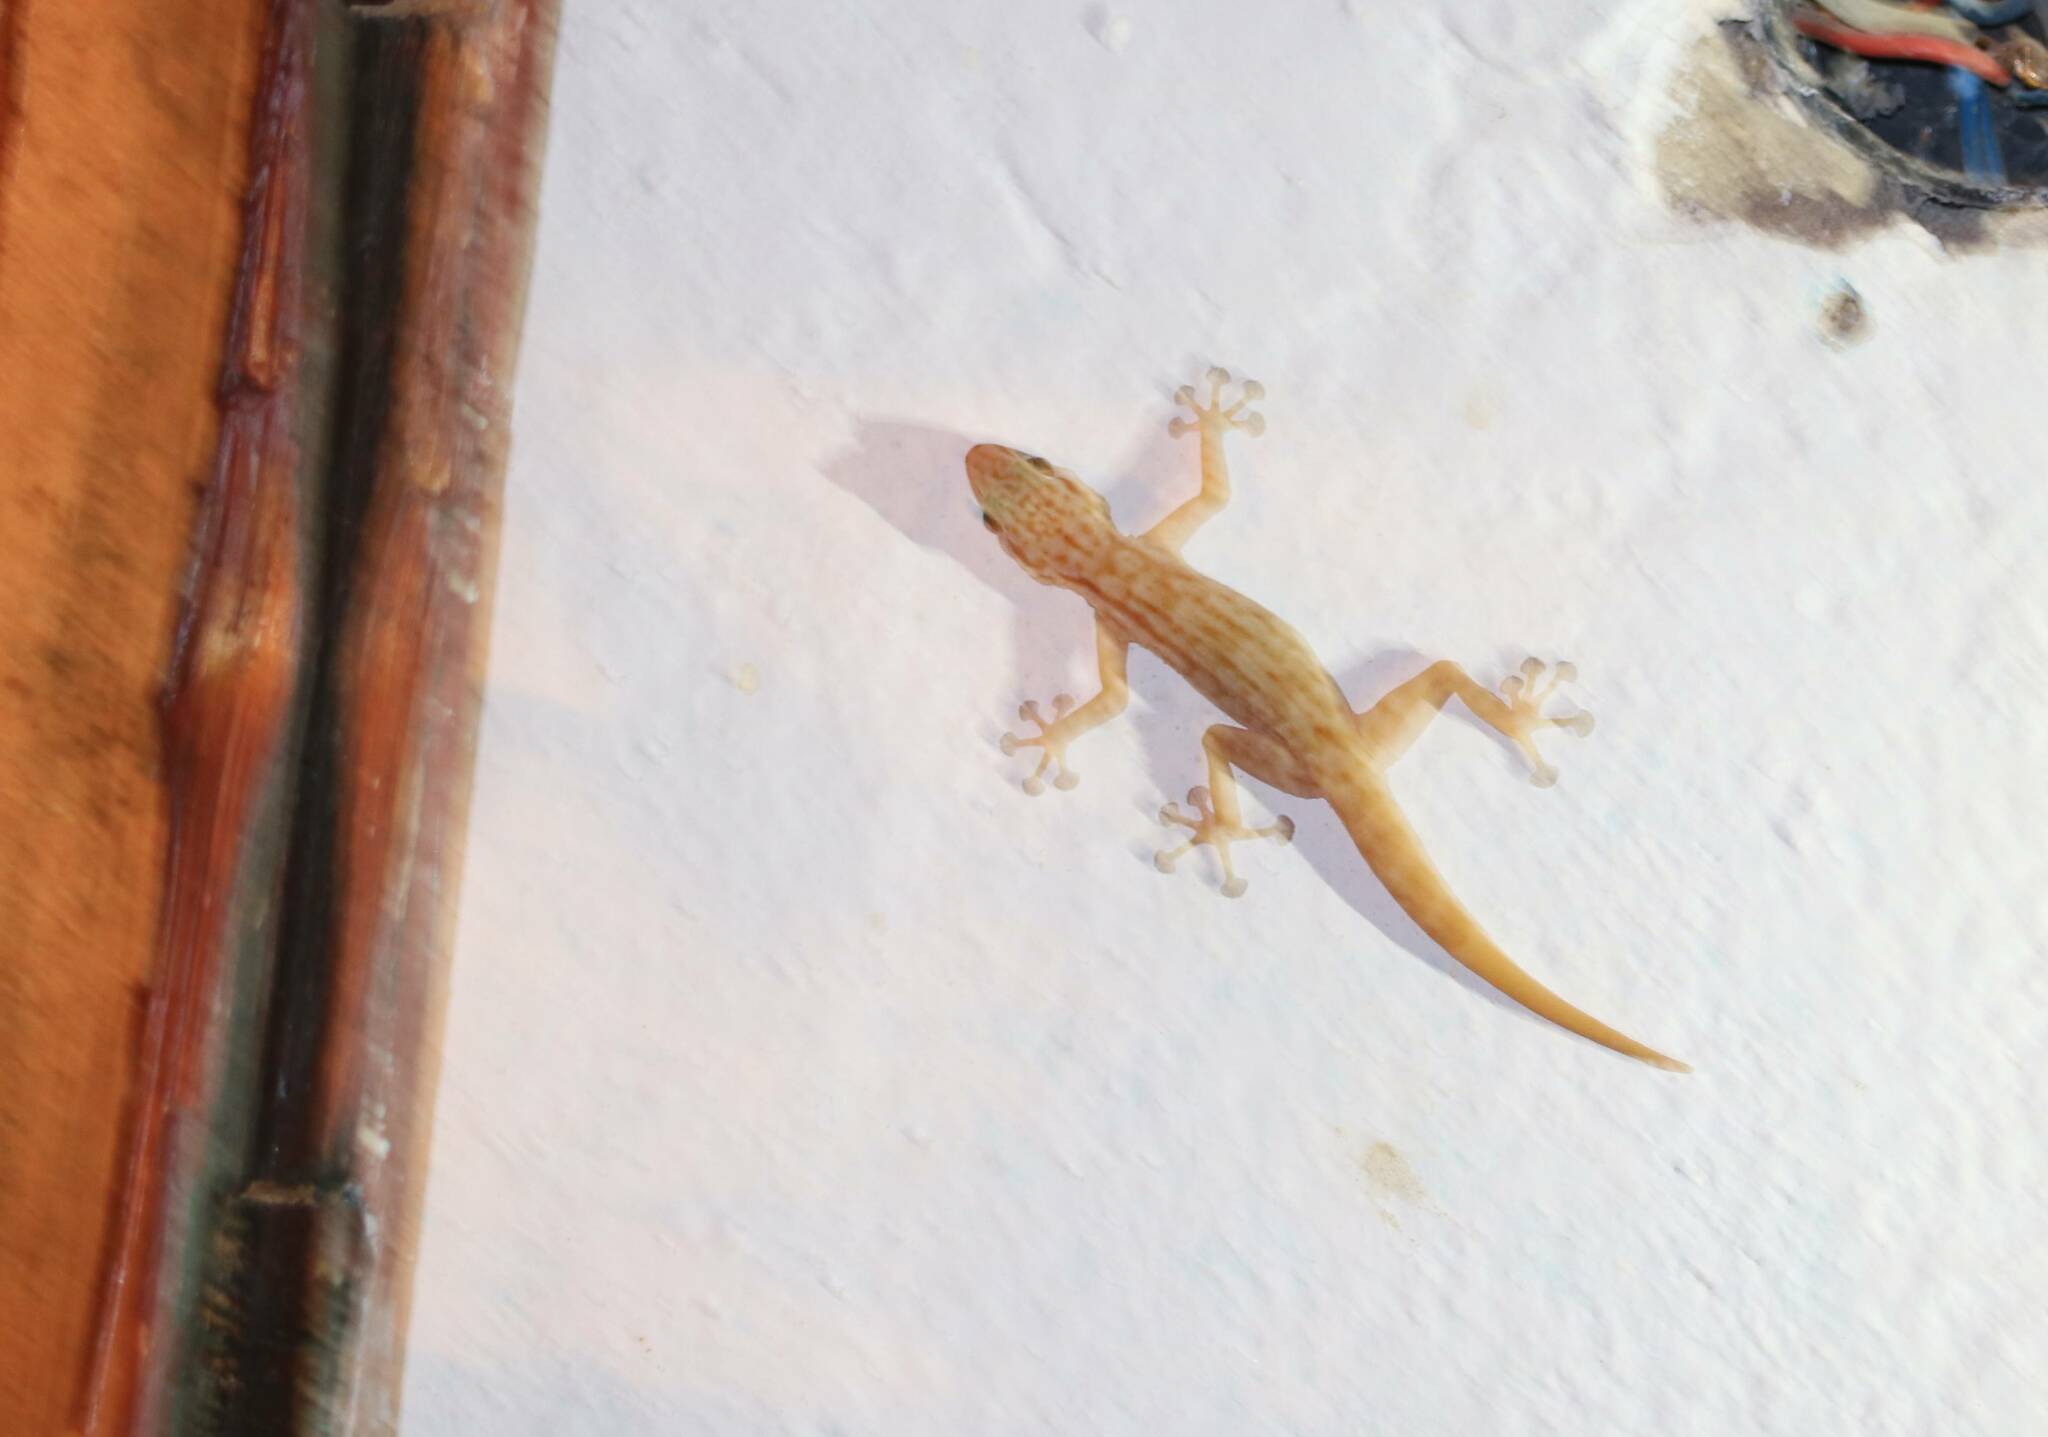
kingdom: Animalia
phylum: Chordata
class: Squamata
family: Phyllodactylidae
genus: Ptyodactylus
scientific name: Ptyodactylus togoensis
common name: Togo fan-footed gecko
